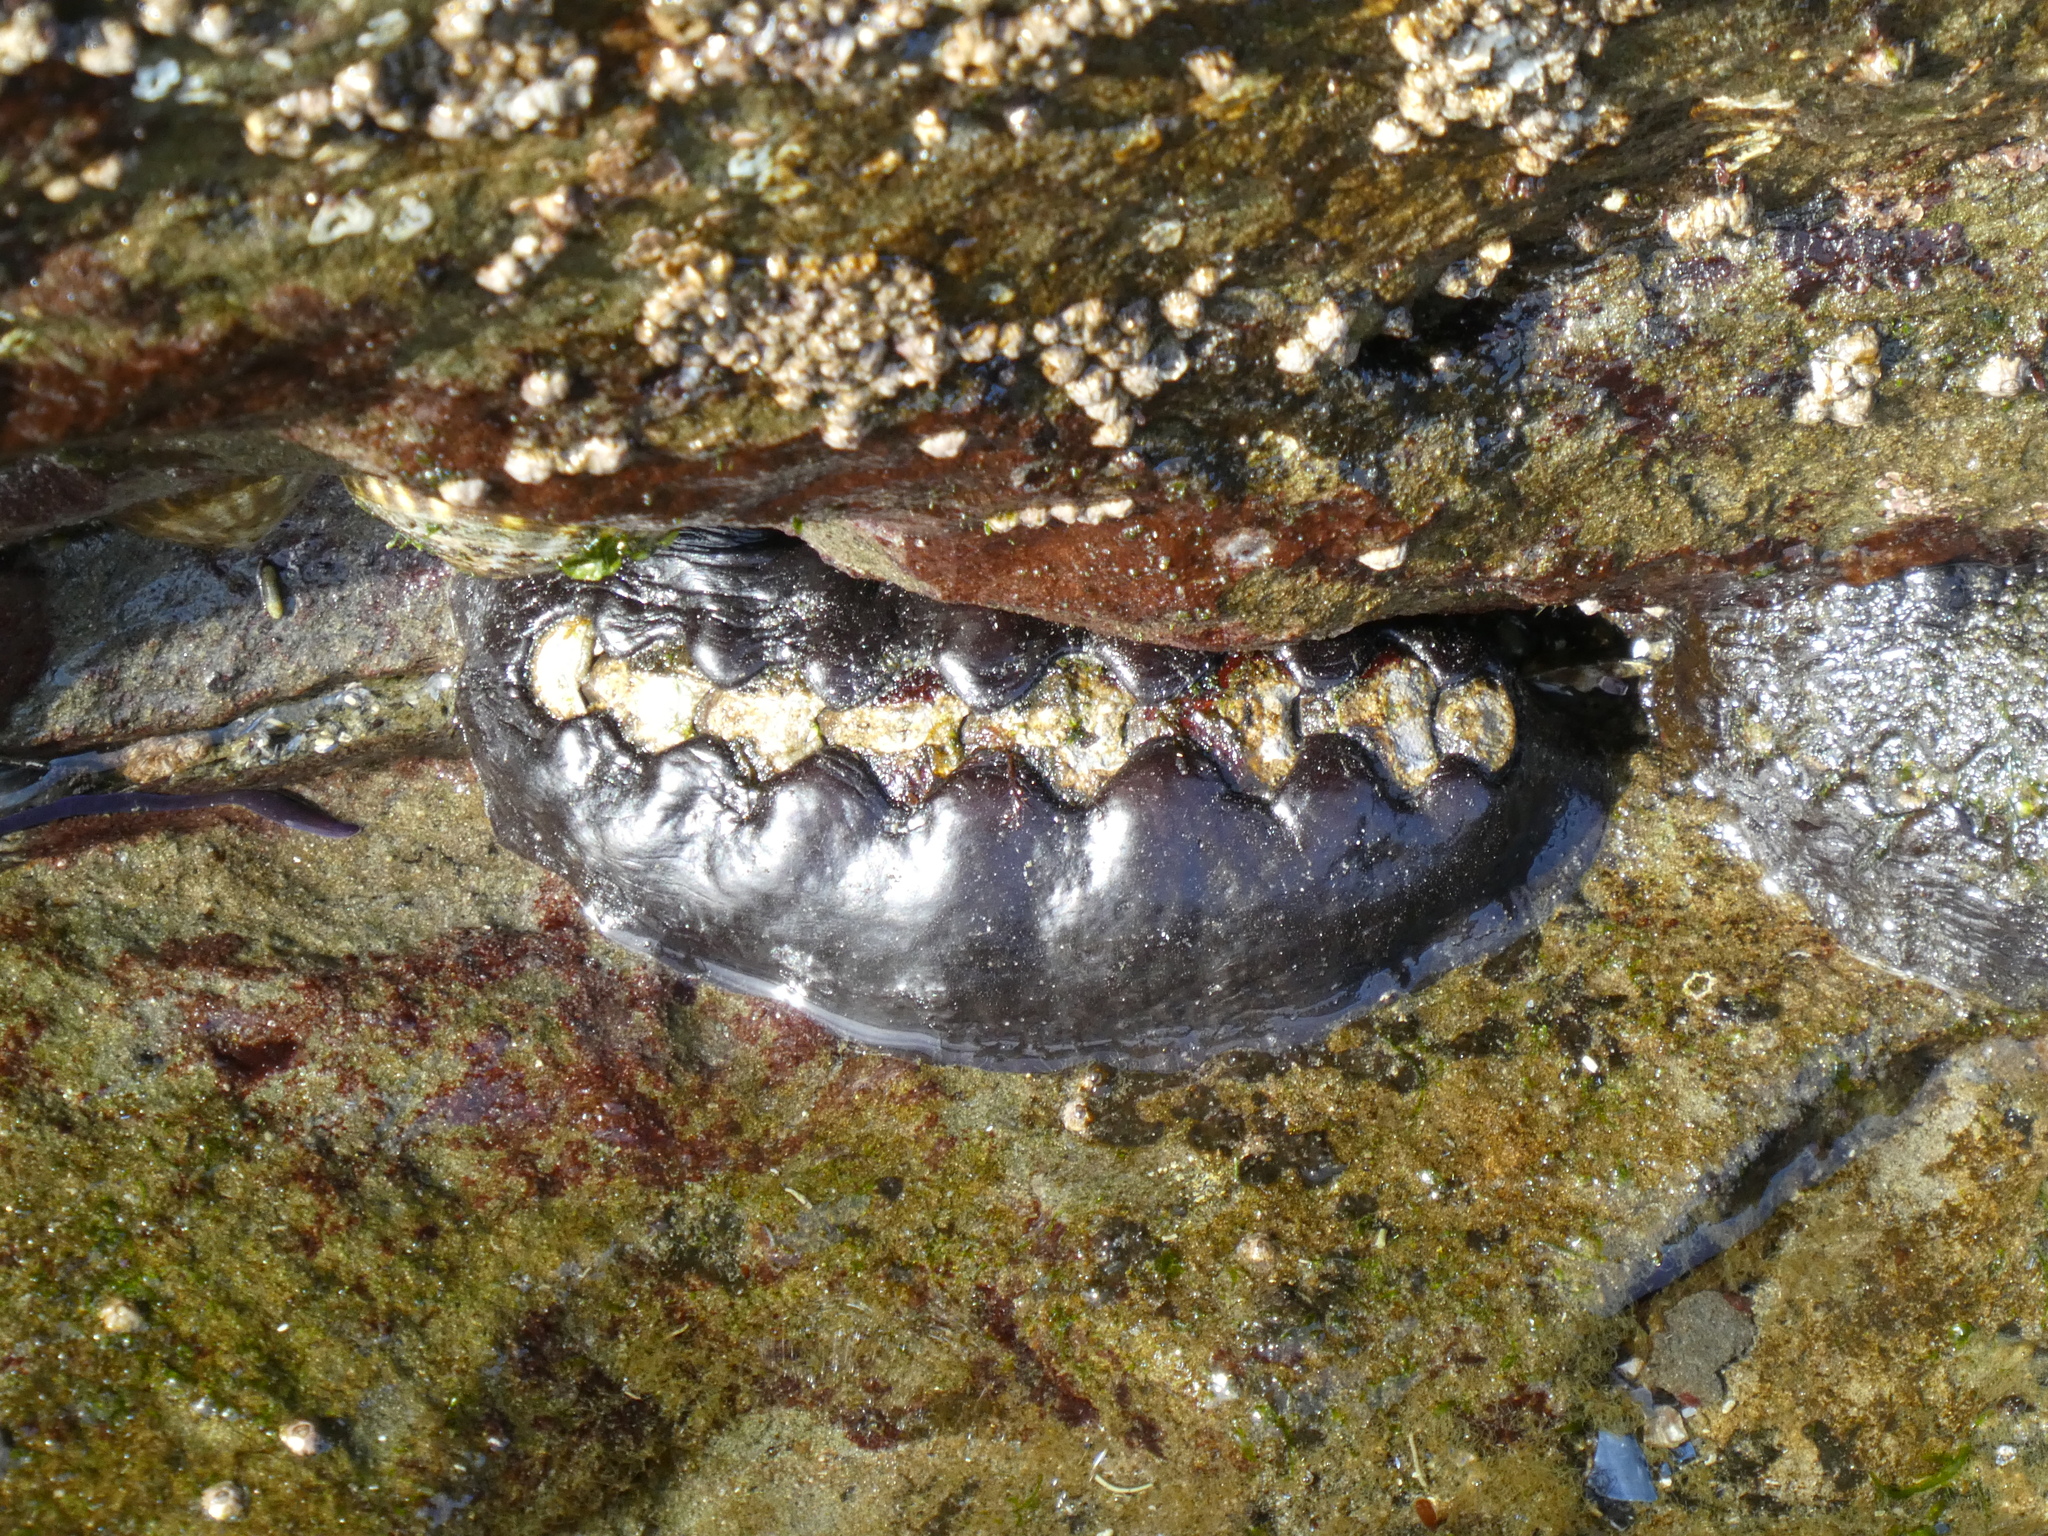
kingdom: Animalia
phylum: Mollusca
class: Polyplacophora
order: Chitonida
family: Mopaliidae
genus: Katharina
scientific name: Katharina tunicata
